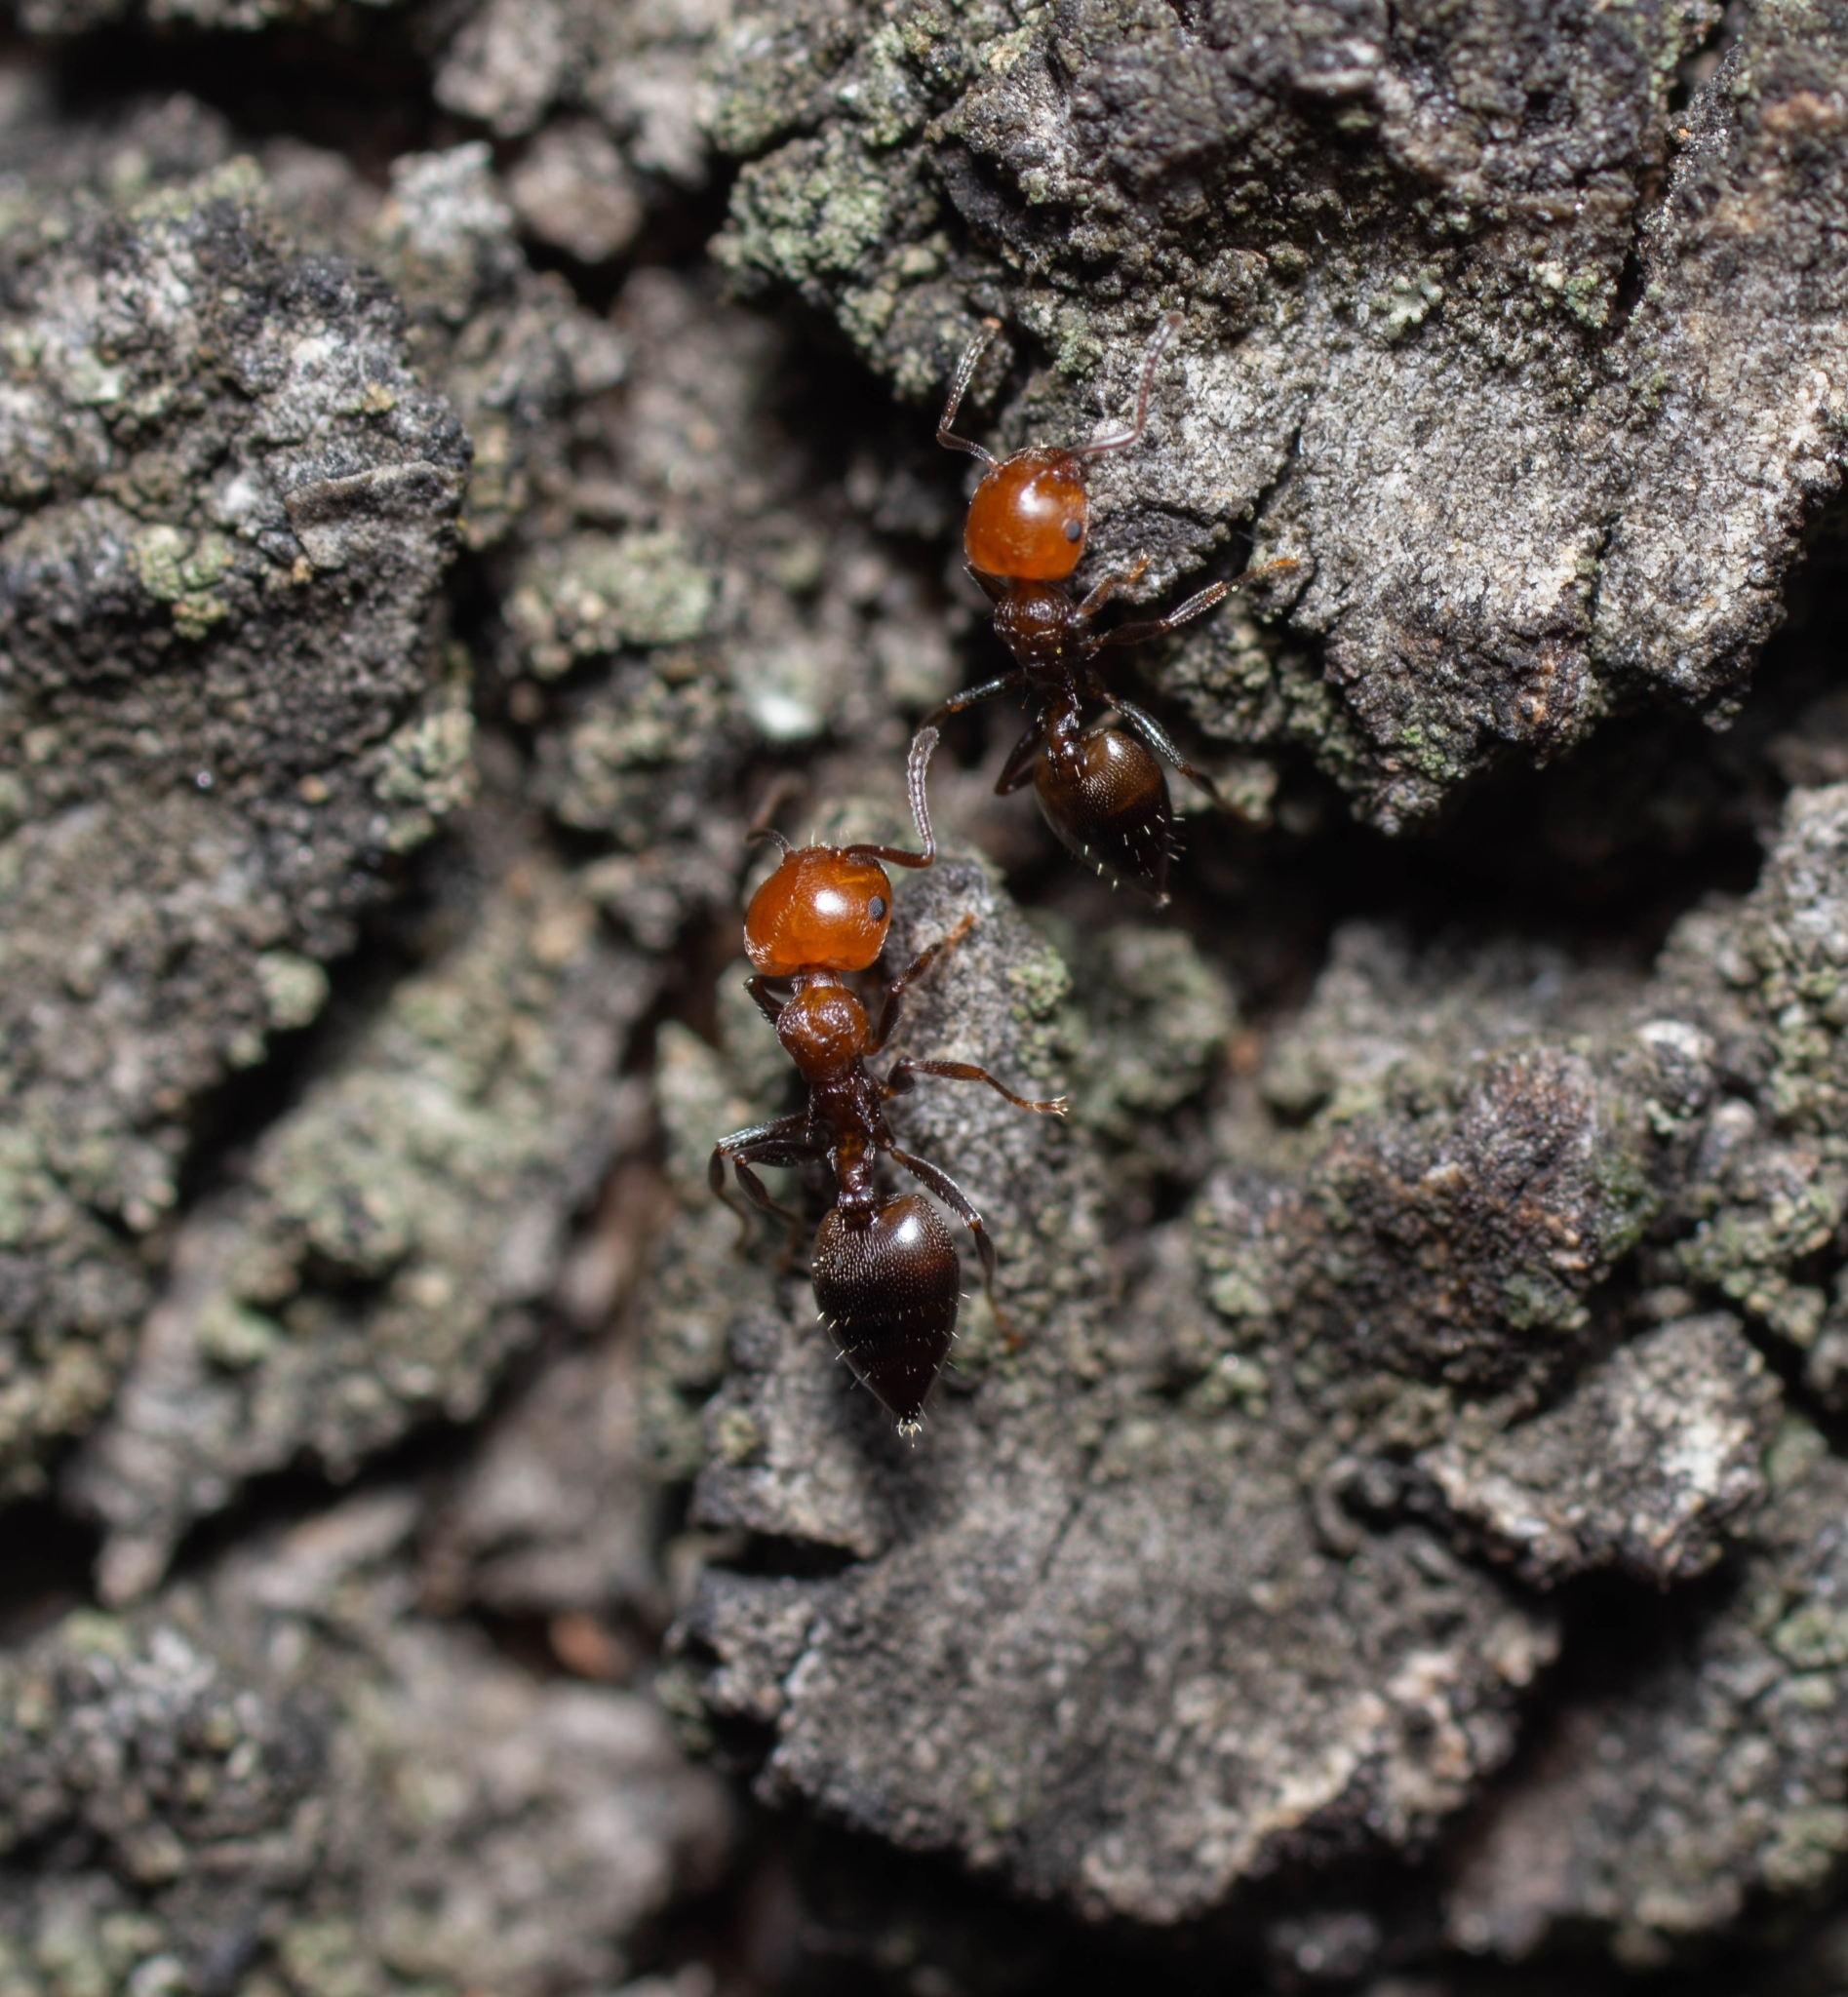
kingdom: Animalia
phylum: Arthropoda
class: Insecta
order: Hymenoptera
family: Formicidae
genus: Crematogaster
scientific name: Crematogaster scutellaris
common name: Fourmi du liège
